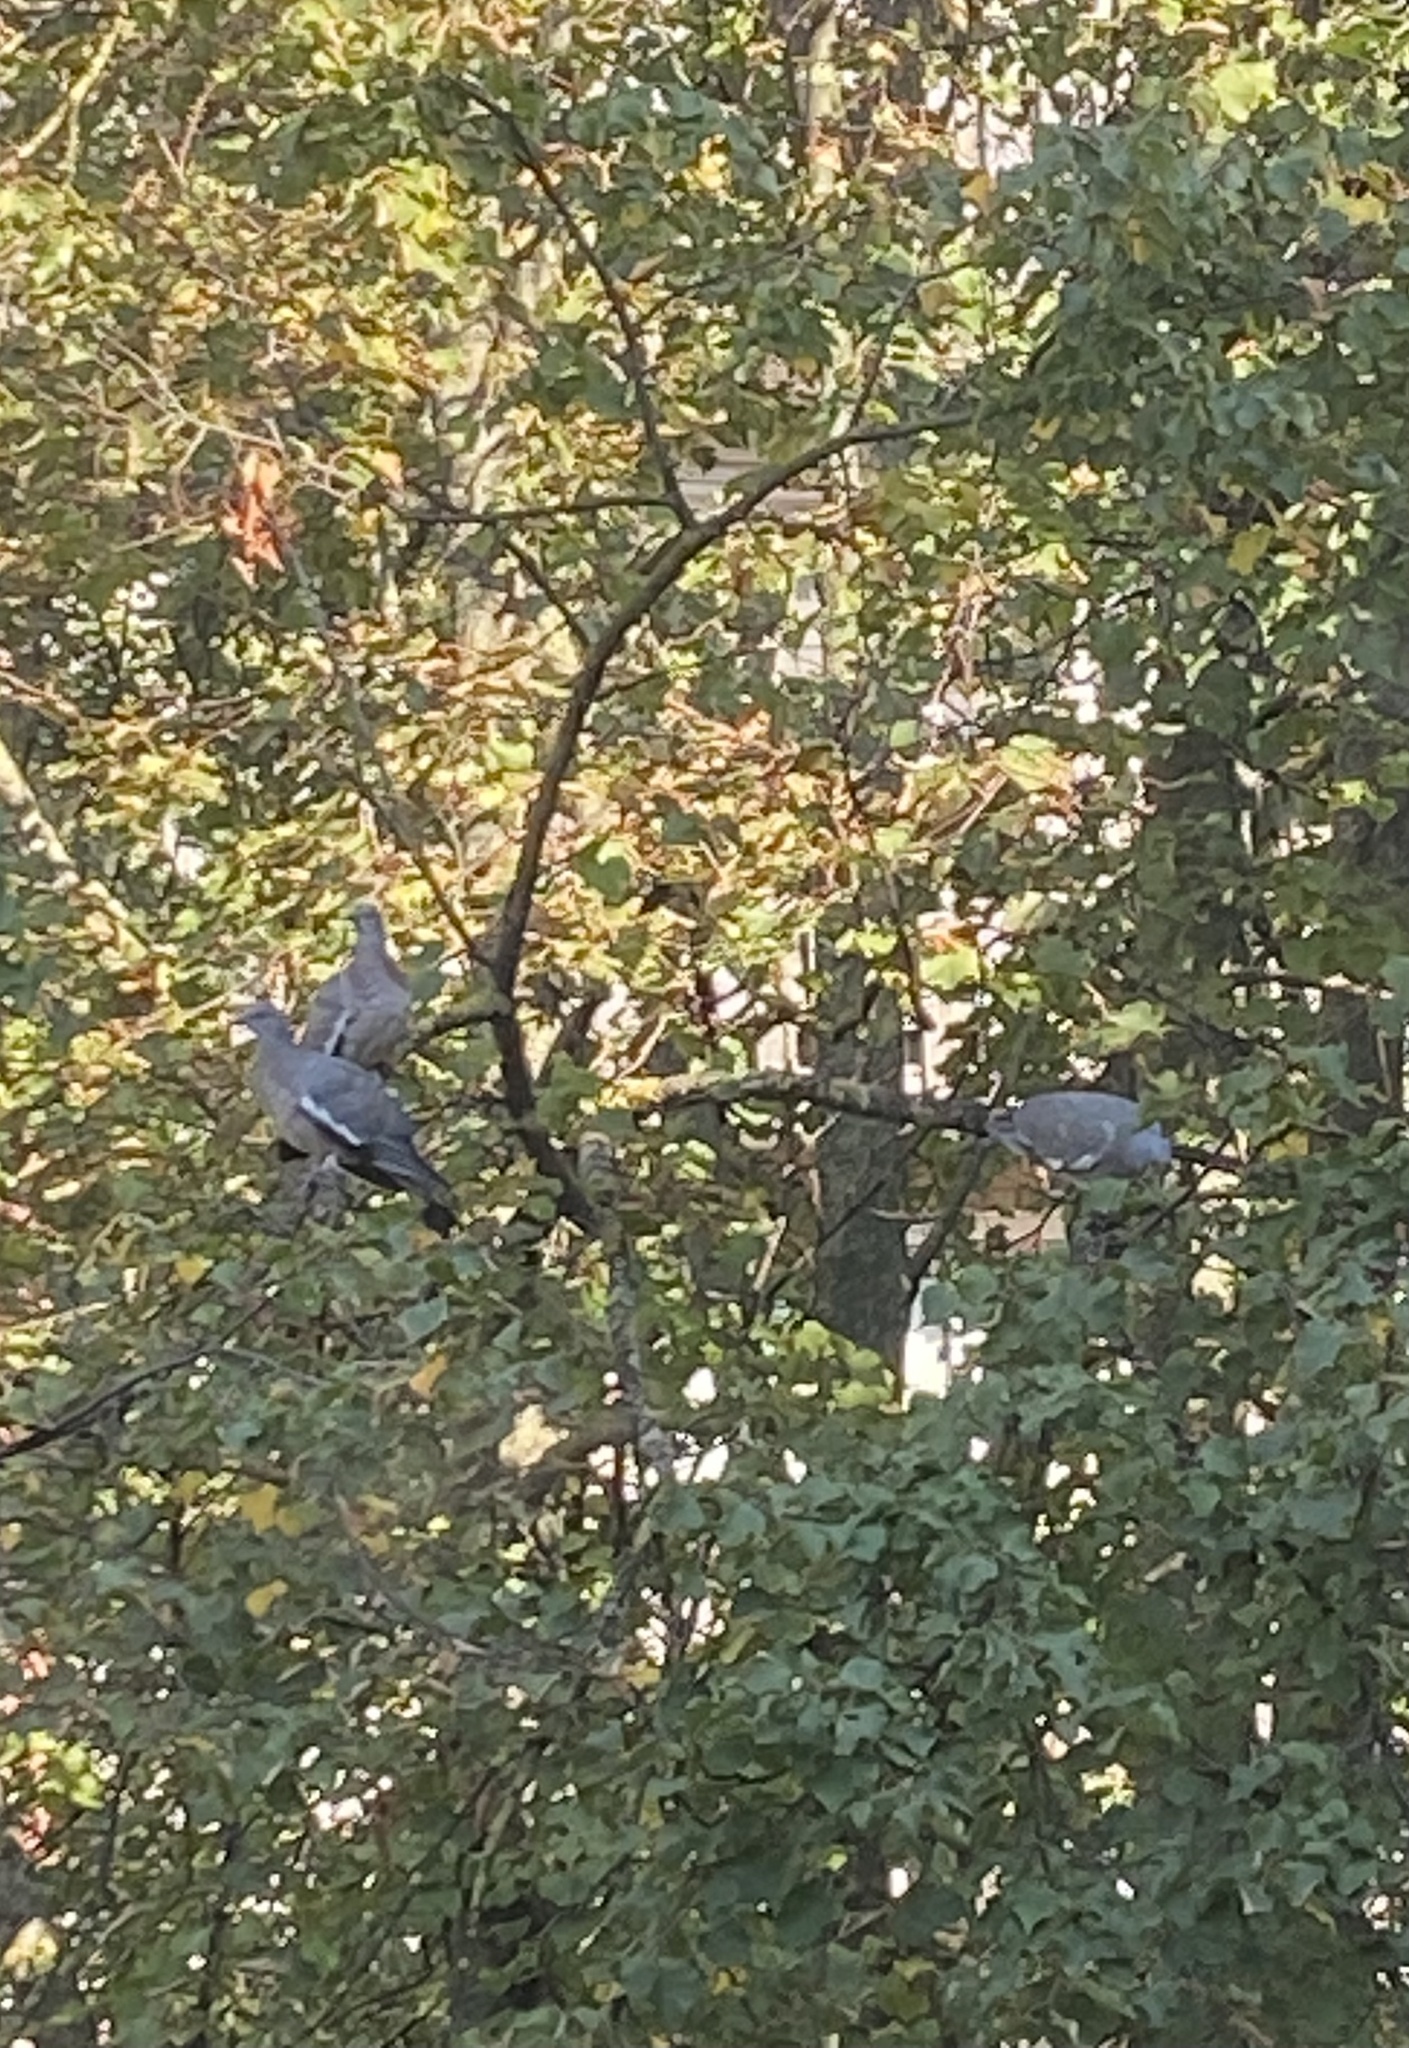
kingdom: Animalia
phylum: Chordata
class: Aves
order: Columbiformes
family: Columbidae
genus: Columba
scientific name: Columba palumbus
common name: Common wood pigeon
